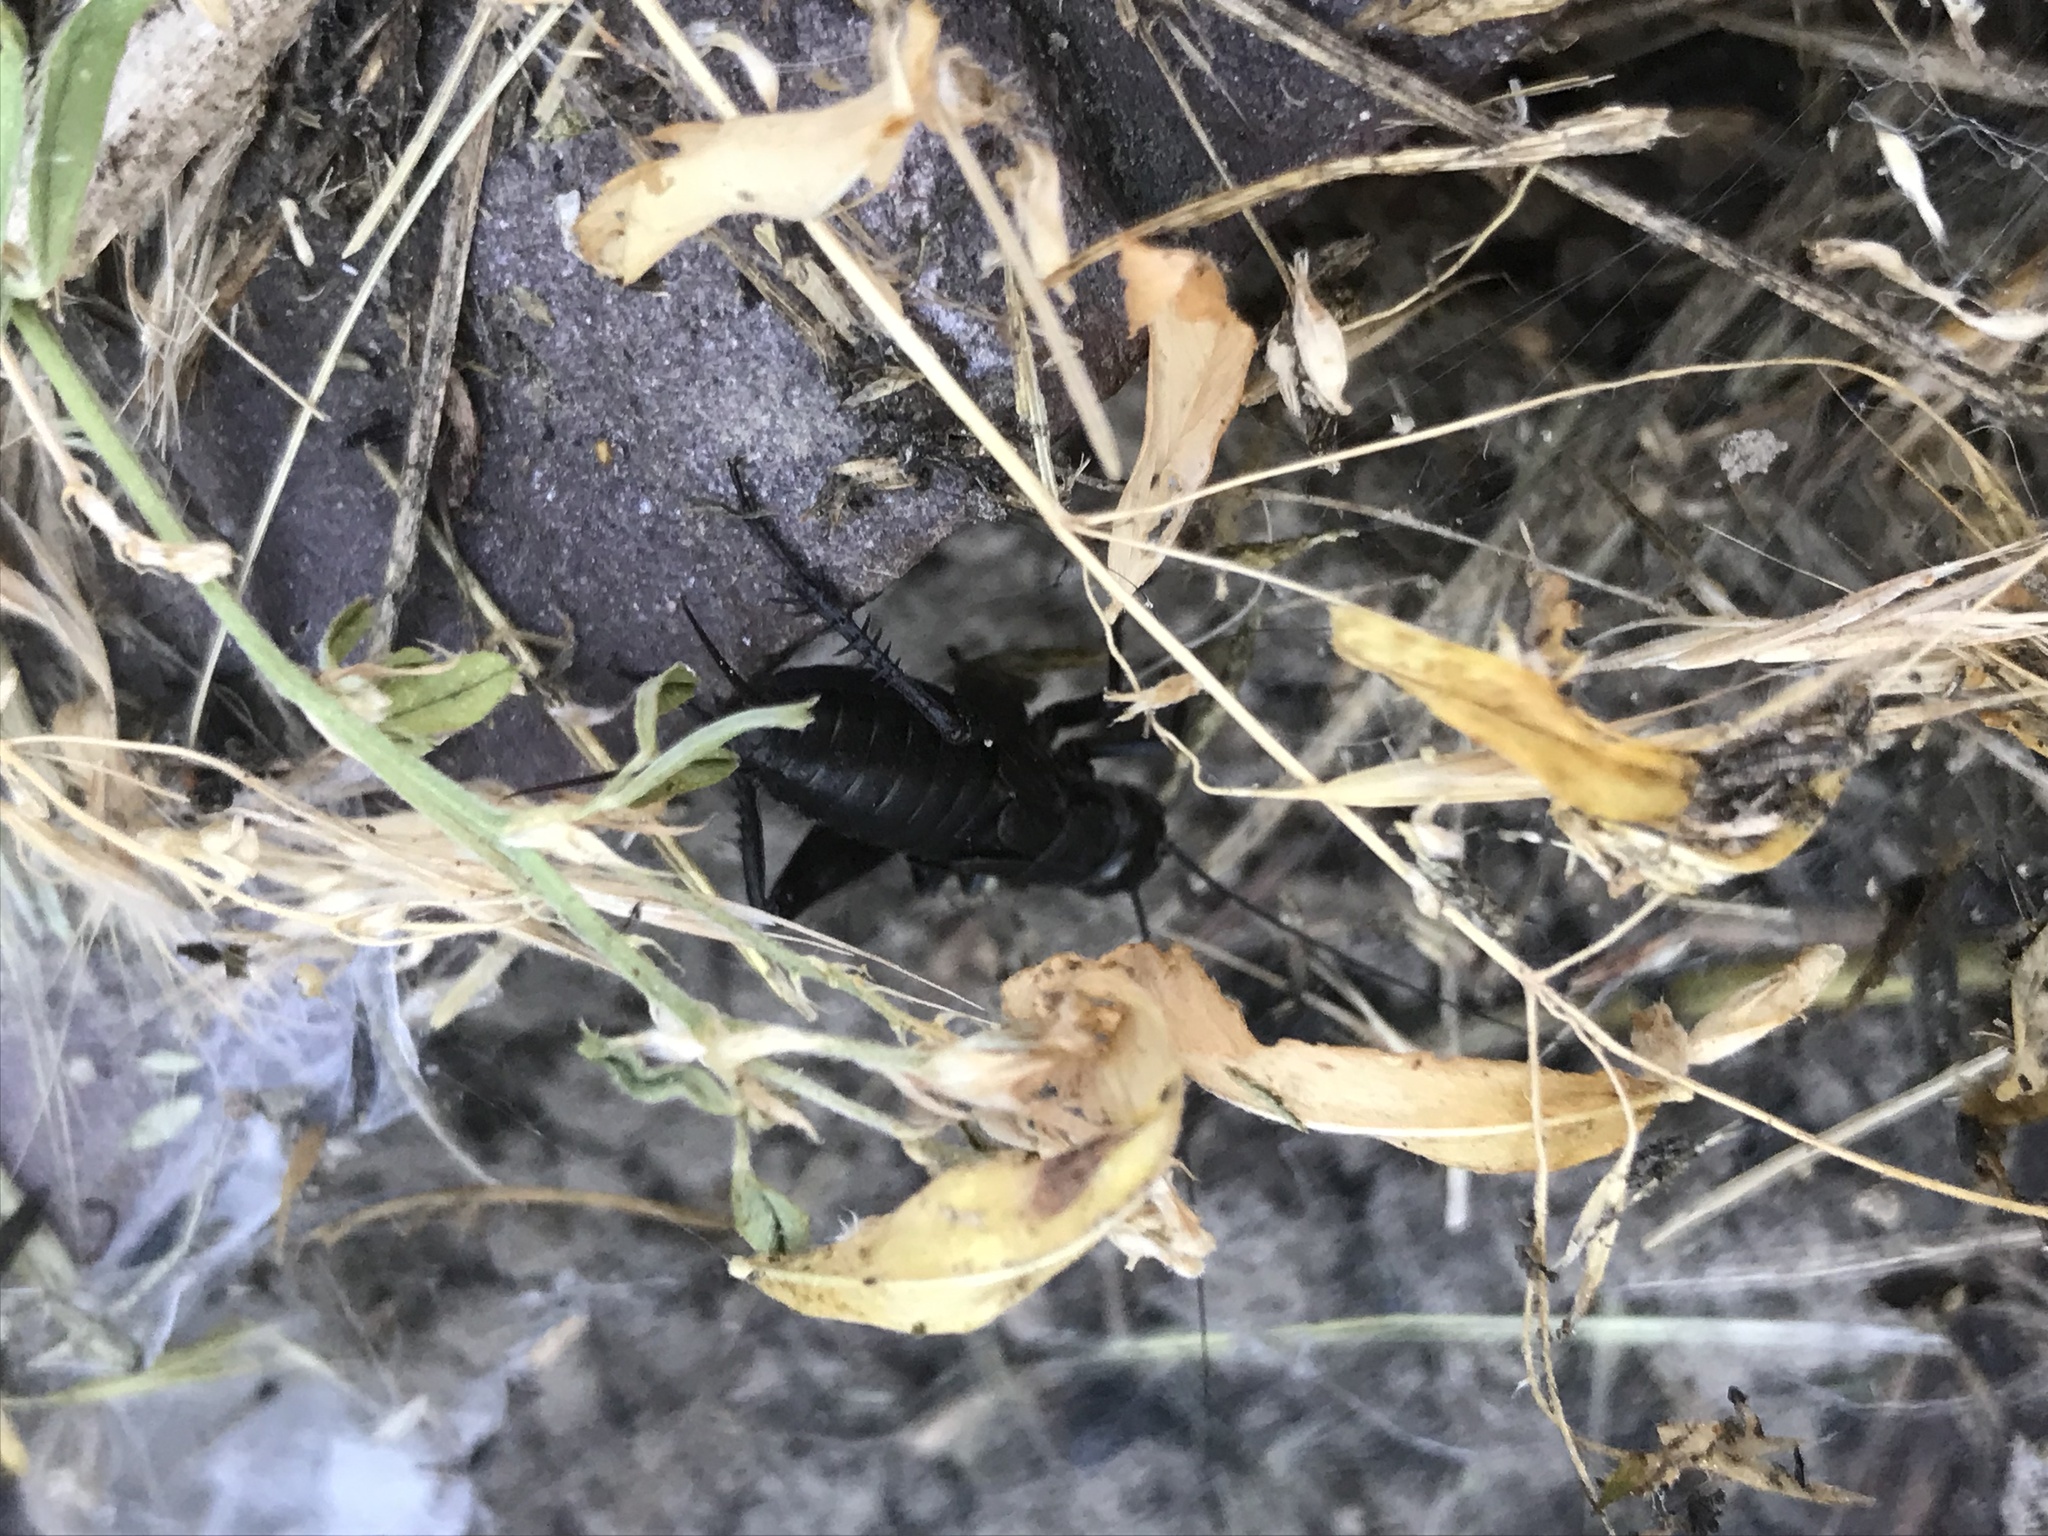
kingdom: Animalia
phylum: Arthropoda
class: Insecta
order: Orthoptera
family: Gryllidae
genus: Gryllus
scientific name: Gryllus pennsylvanicus
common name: Fall field cricket
